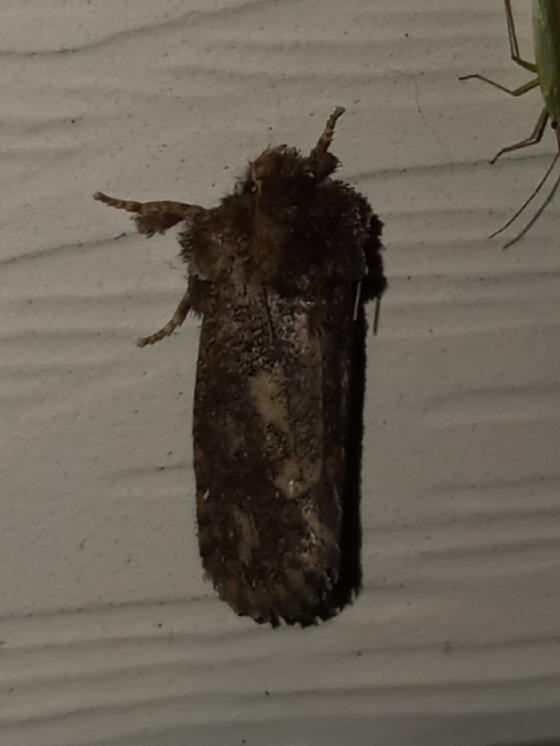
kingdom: Animalia
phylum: Arthropoda
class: Insecta
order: Lepidoptera
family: Tineidae
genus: Acrolophus
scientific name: Acrolophus arcanella
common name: Arcane grass tubeworm moth
